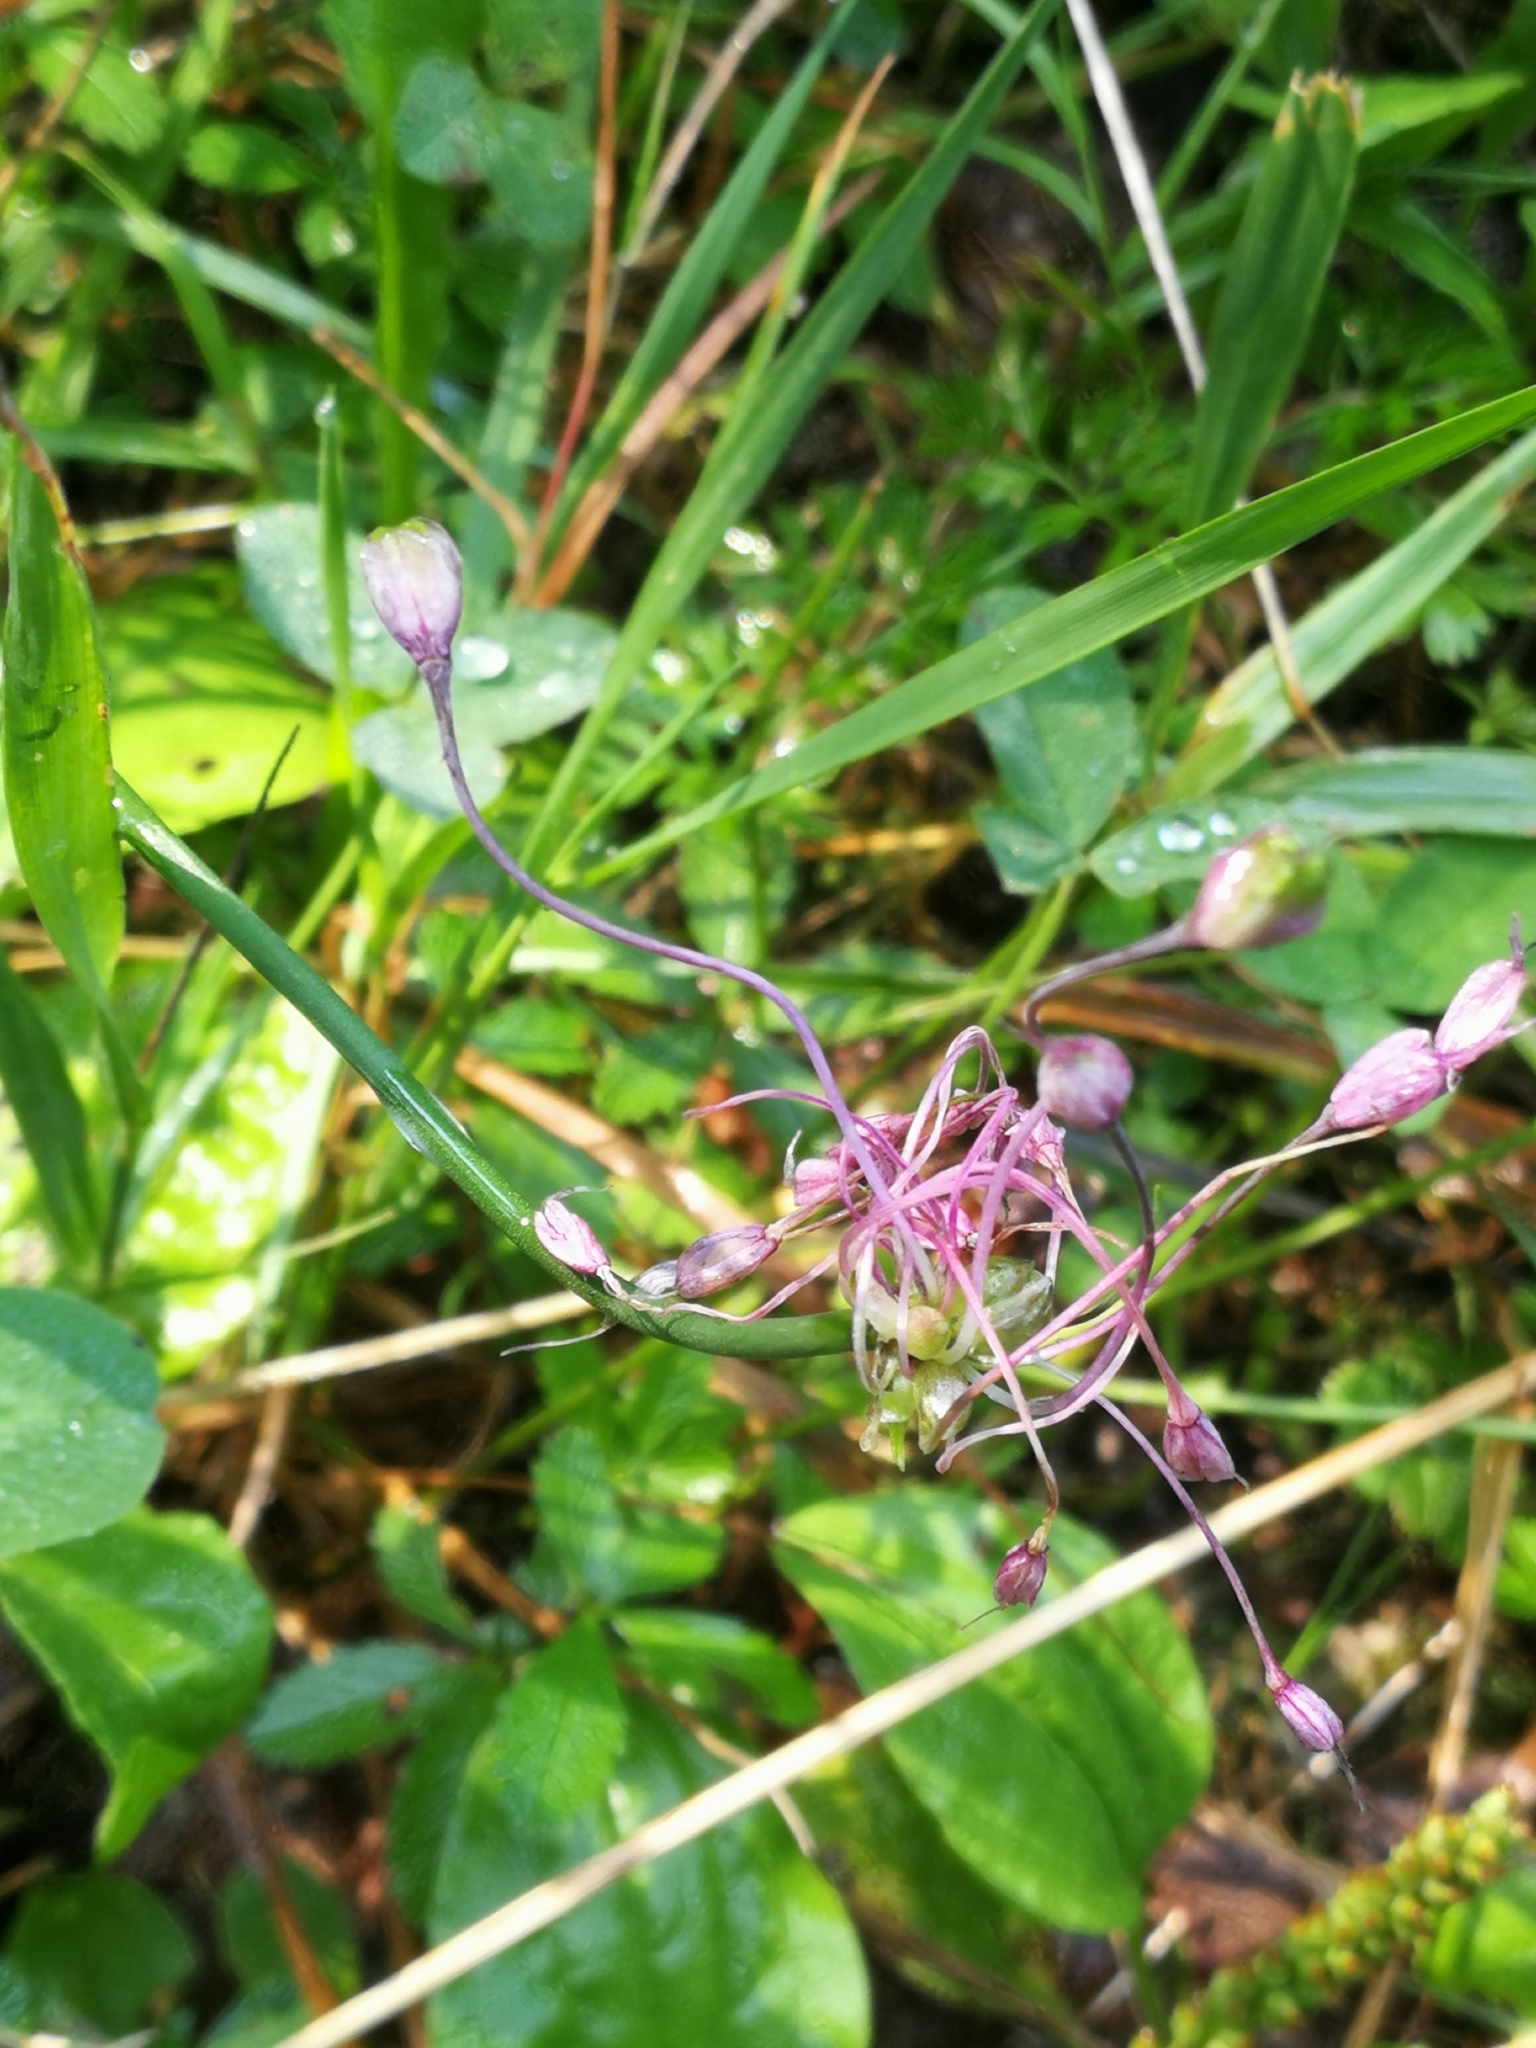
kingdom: Plantae
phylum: Tracheophyta
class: Liliopsida
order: Asparagales
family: Amaryllidaceae
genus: Allium
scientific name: Allium carinatum
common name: Keeled garlic
